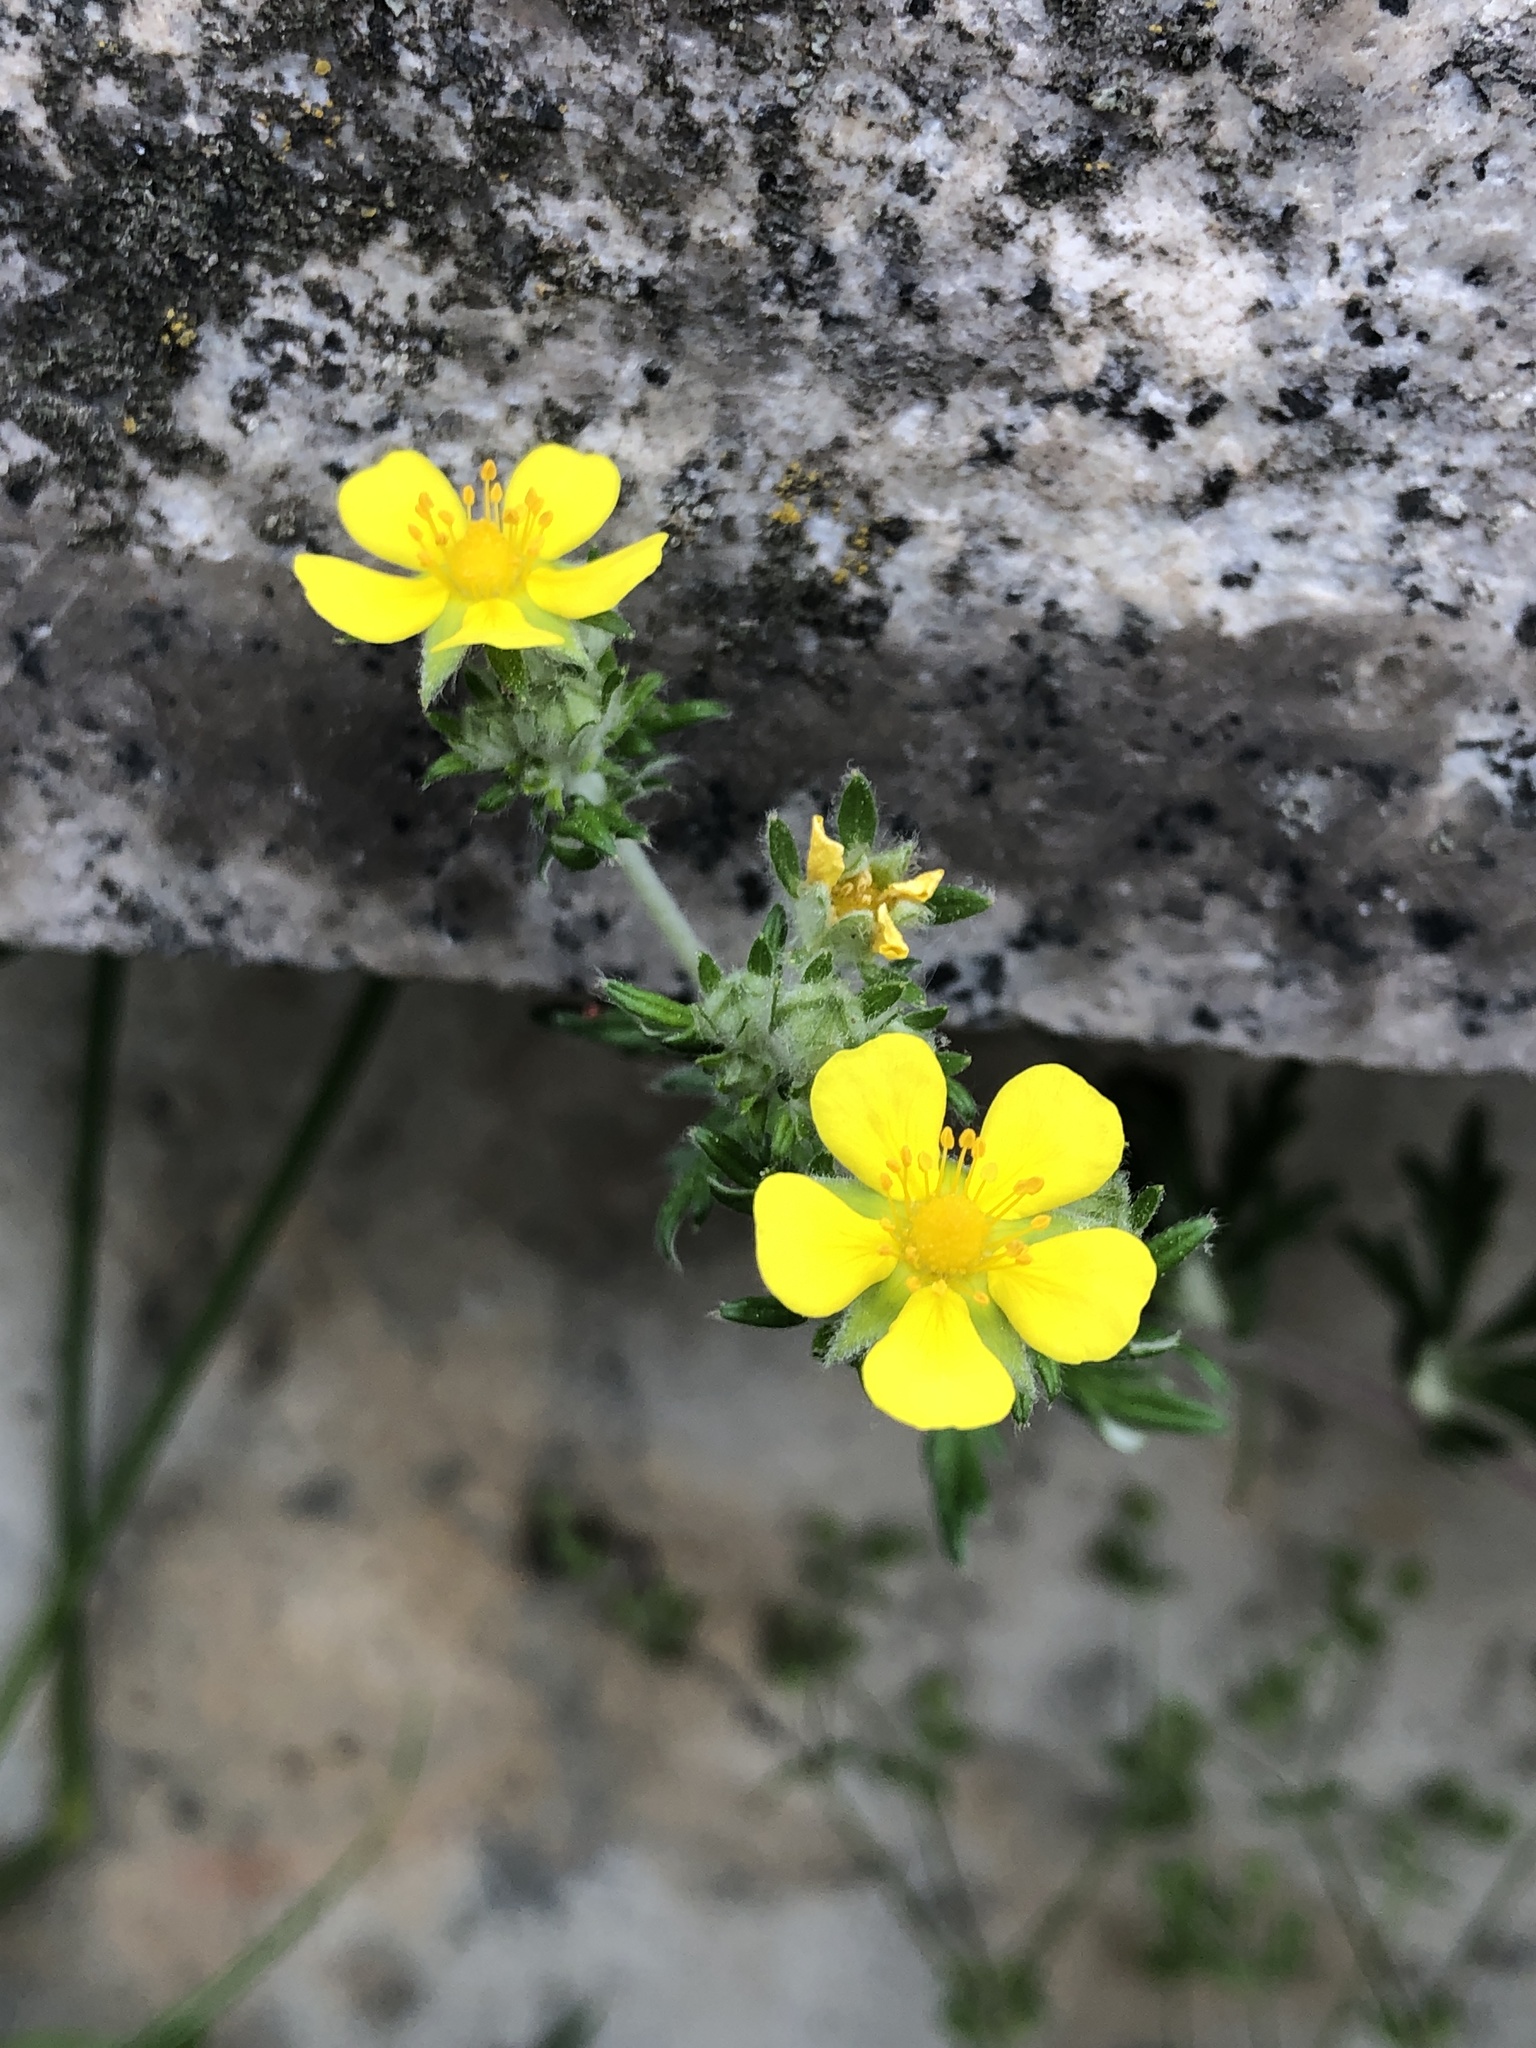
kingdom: Plantae
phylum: Tracheophyta
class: Magnoliopsida
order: Rosales
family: Rosaceae
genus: Potentilla
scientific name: Potentilla argentea
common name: Hoary cinquefoil
